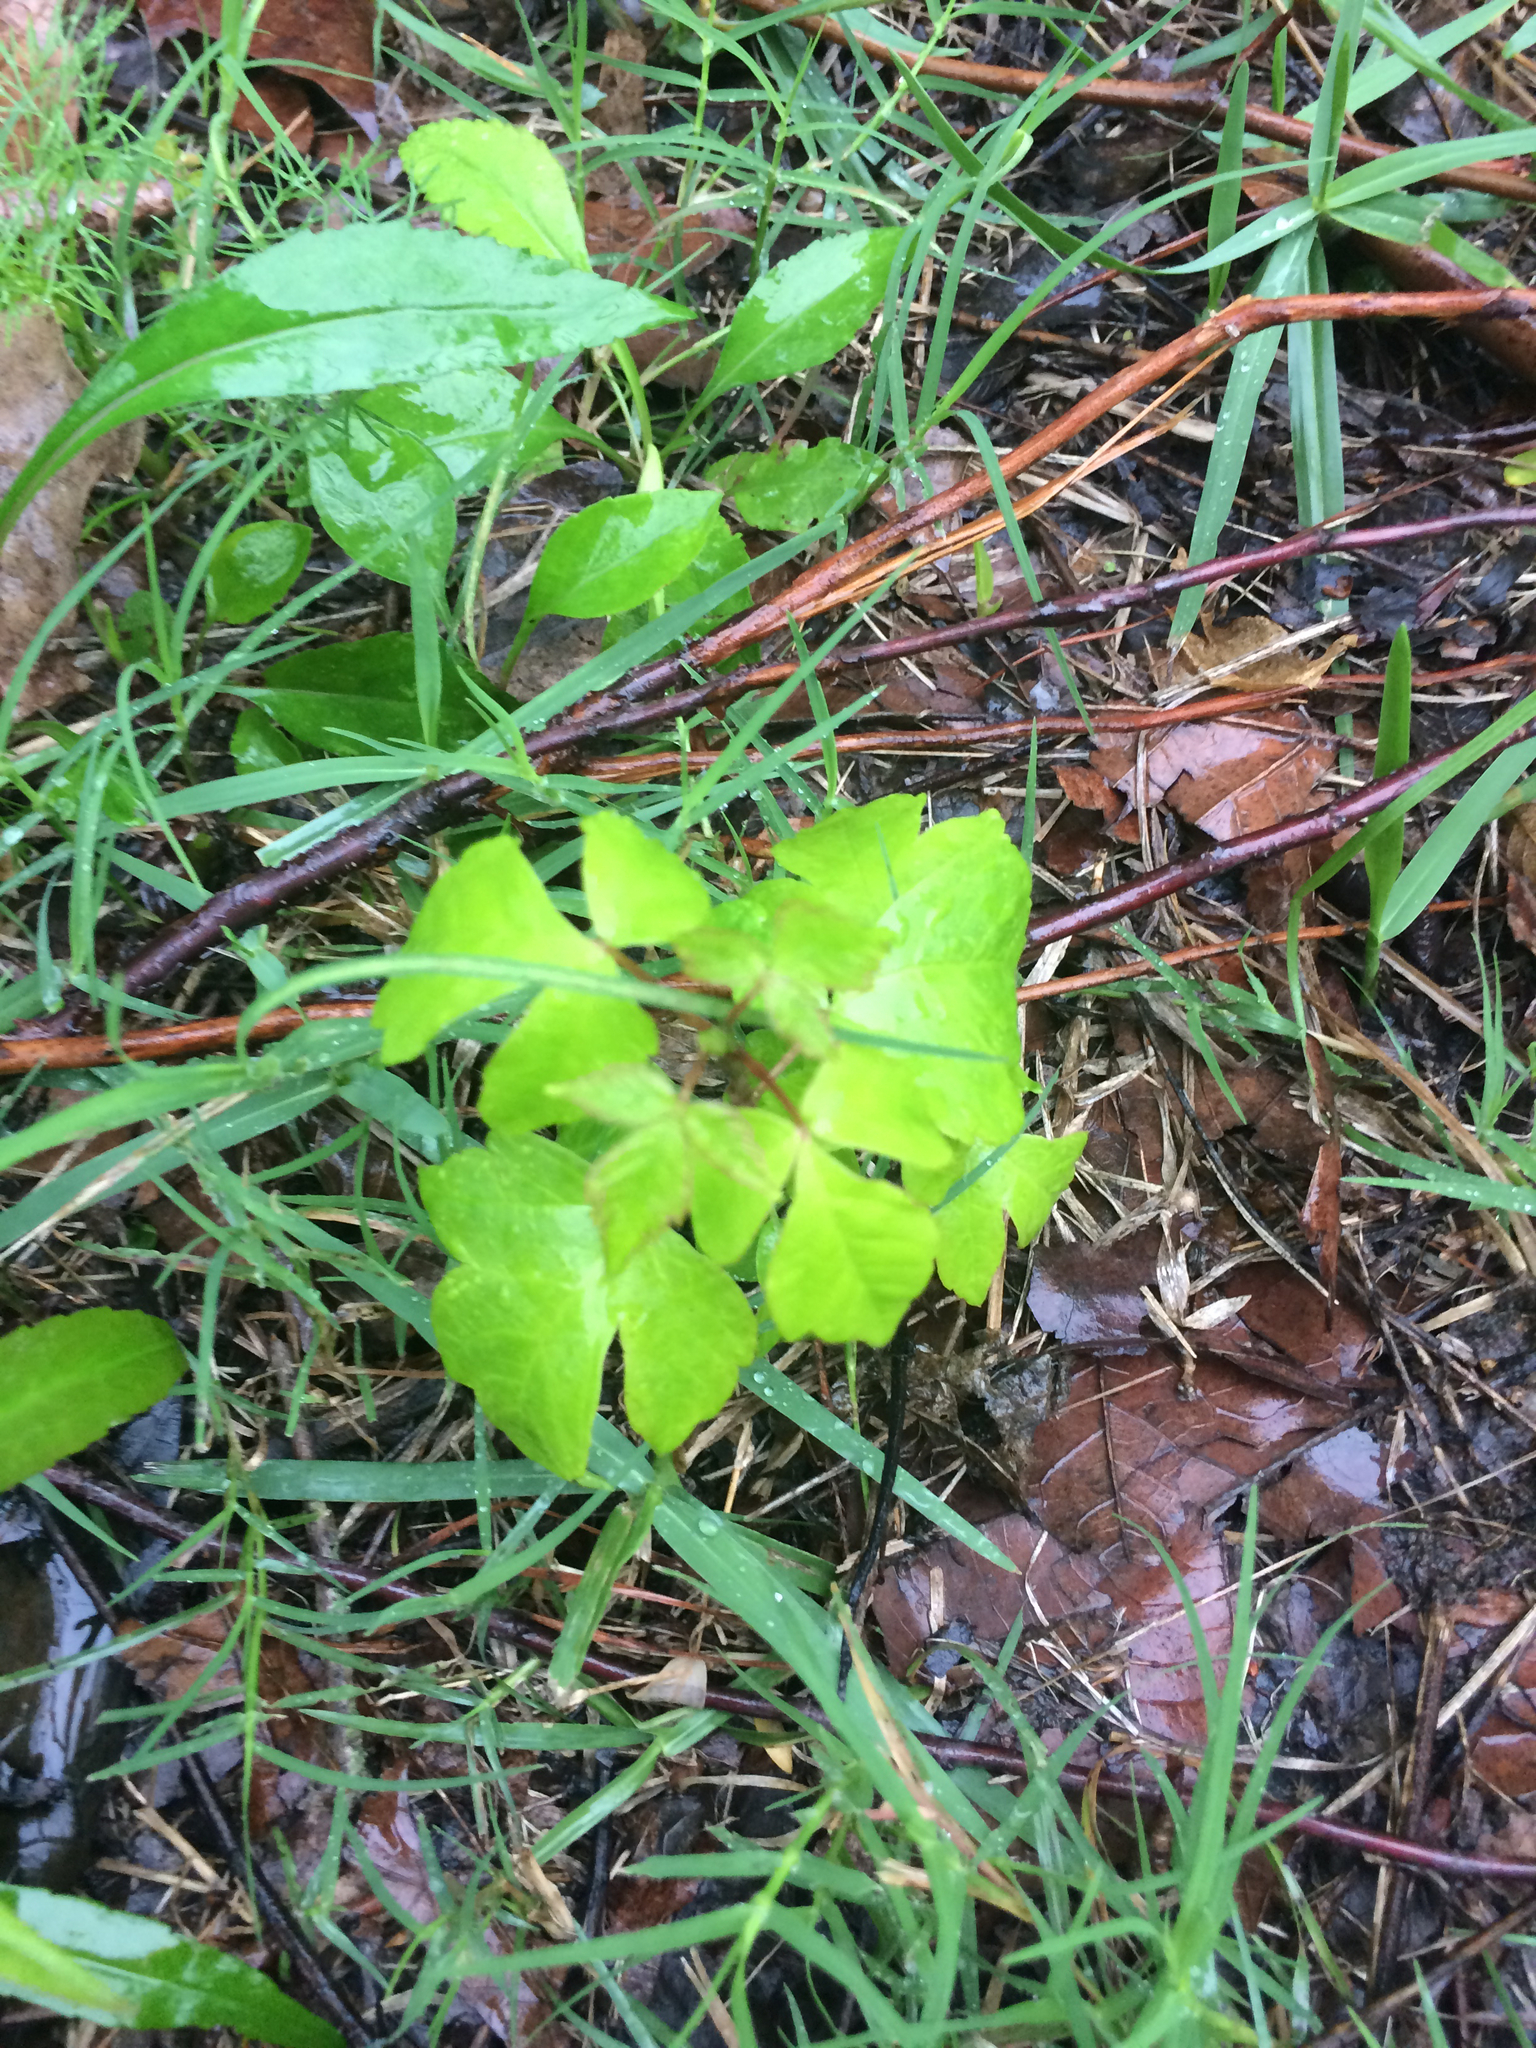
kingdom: Plantae
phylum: Tracheophyta
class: Magnoliopsida
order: Sapindales
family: Anacardiaceae
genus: Toxicodendron
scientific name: Toxicodendron radicans
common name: Poison ivy
